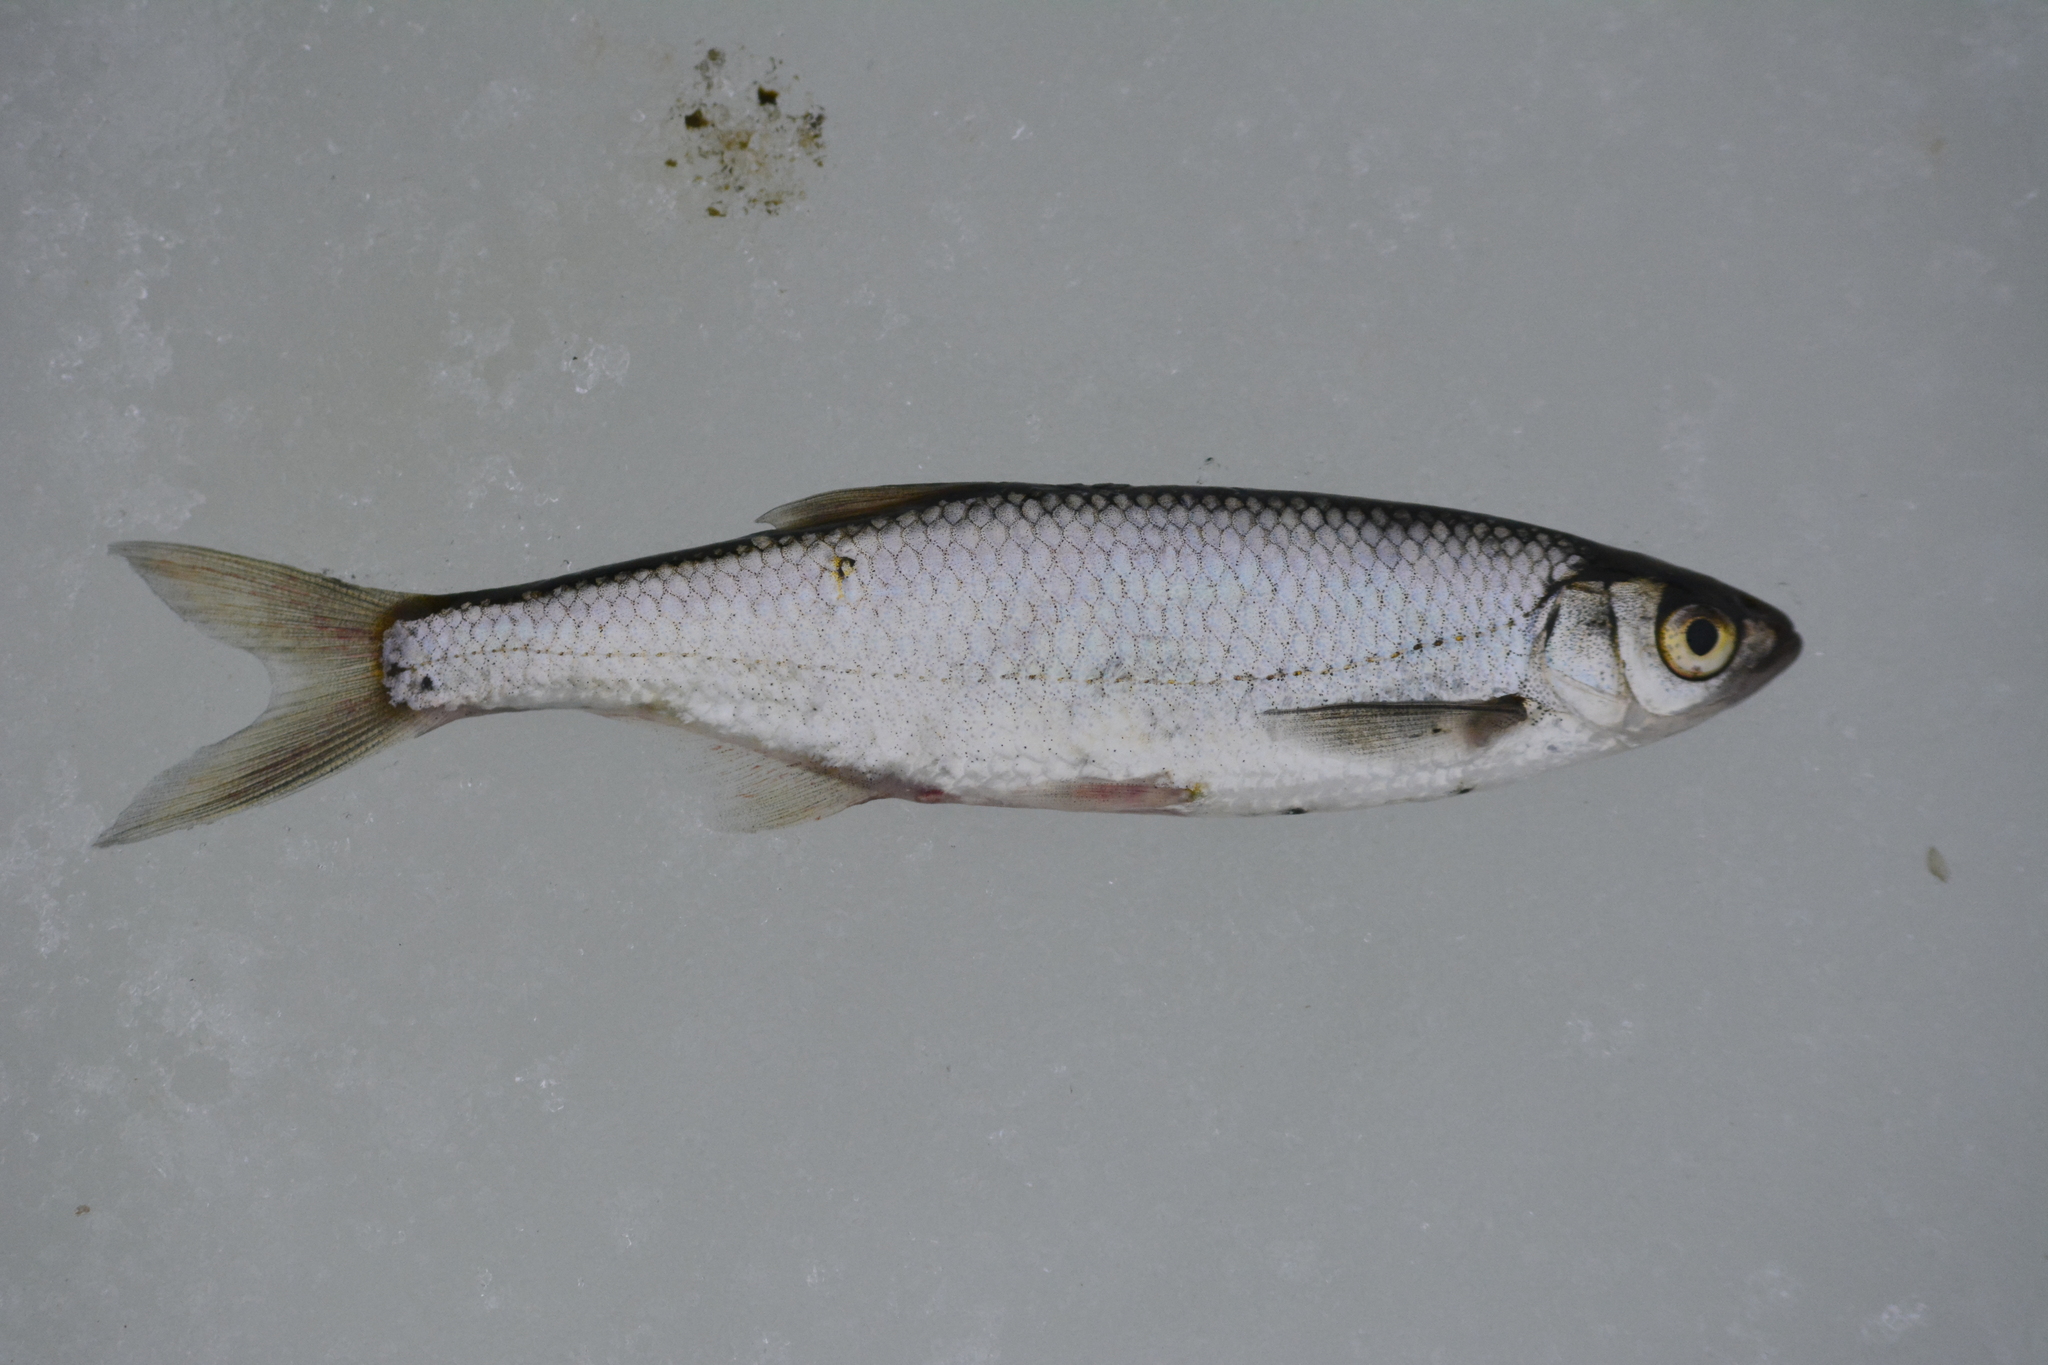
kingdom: Animalia
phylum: Chordata
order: Cypriniformes
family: Cyprinidae
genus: Alburnus
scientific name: Alburnus alburnus
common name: Bleak
